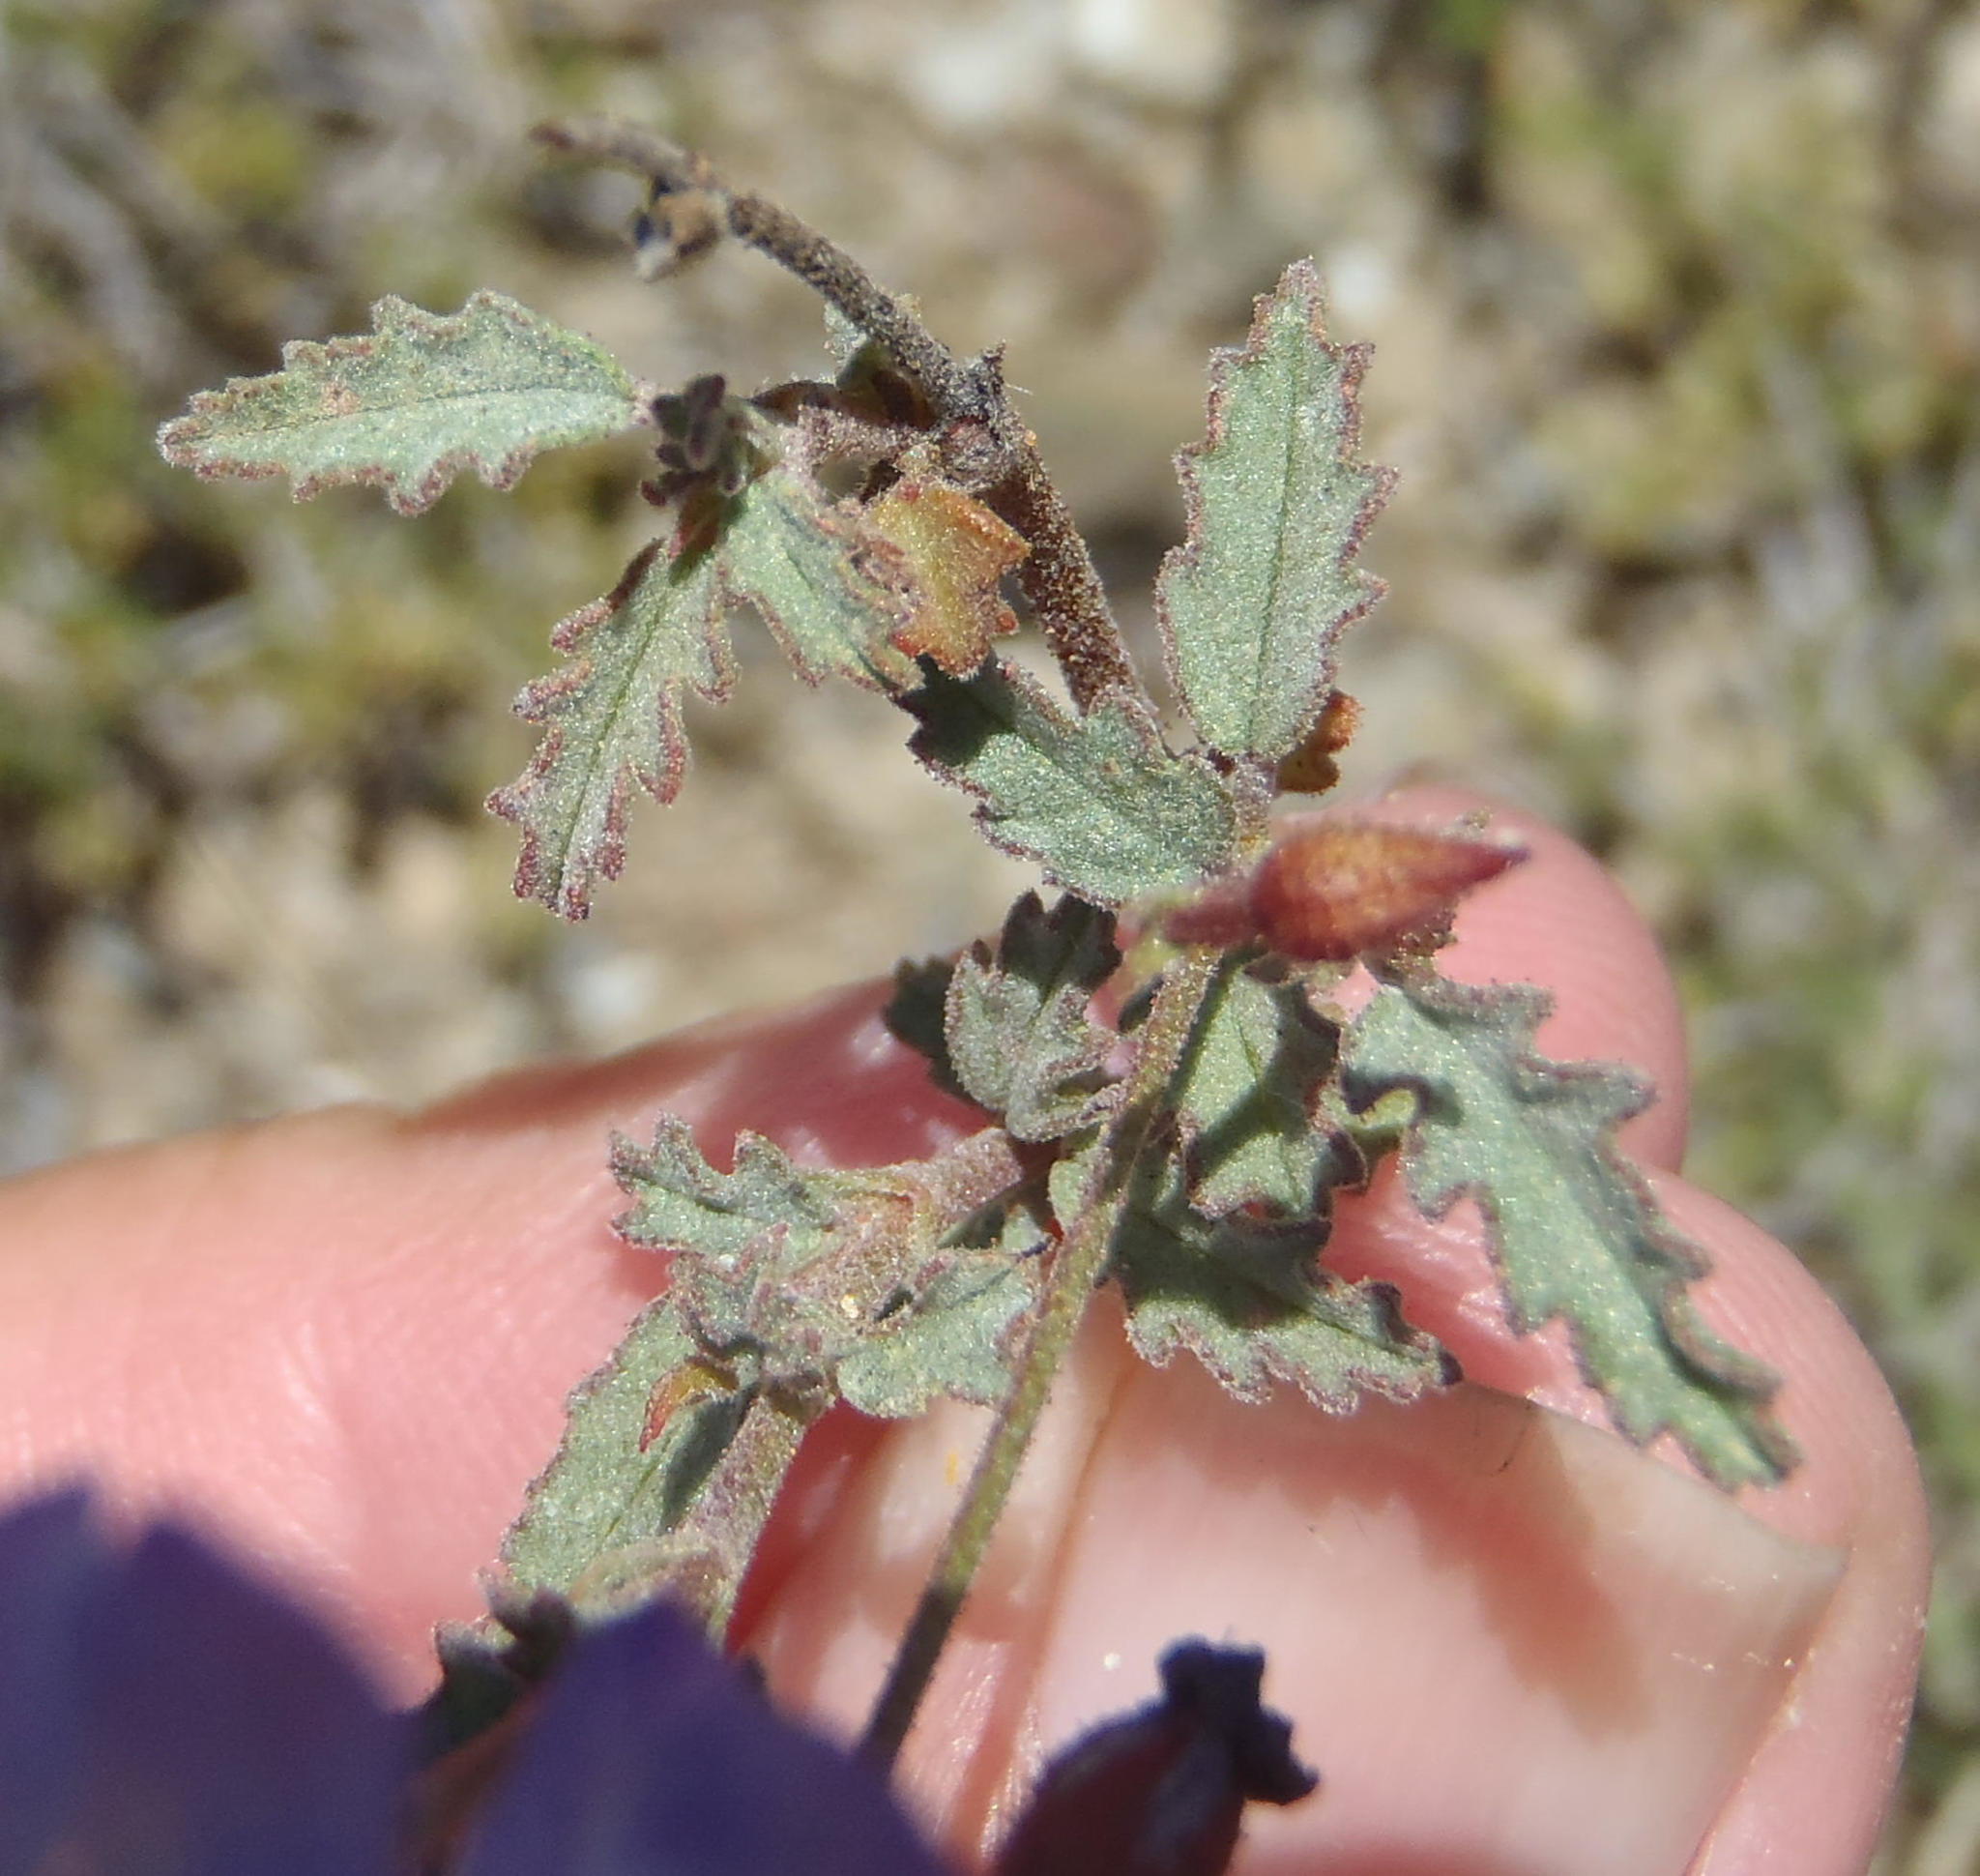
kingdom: Plantae
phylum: Tracheophyta
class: Magnoliopsida
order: Malvales
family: Malvaceae
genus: Hermannia
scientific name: Hermannia coccocarpa
